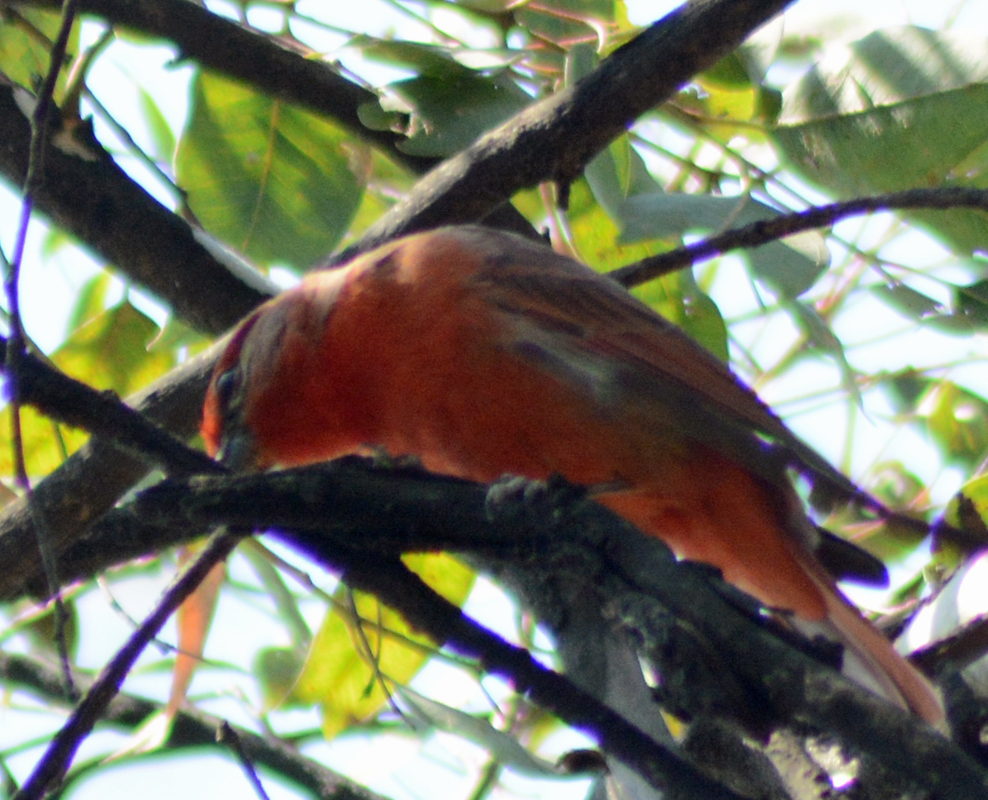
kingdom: Animalia
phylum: Chordata
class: Aves
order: Passeriformes
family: Cardinalidae
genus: Piranga
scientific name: Piranga flava
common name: Red tanager
